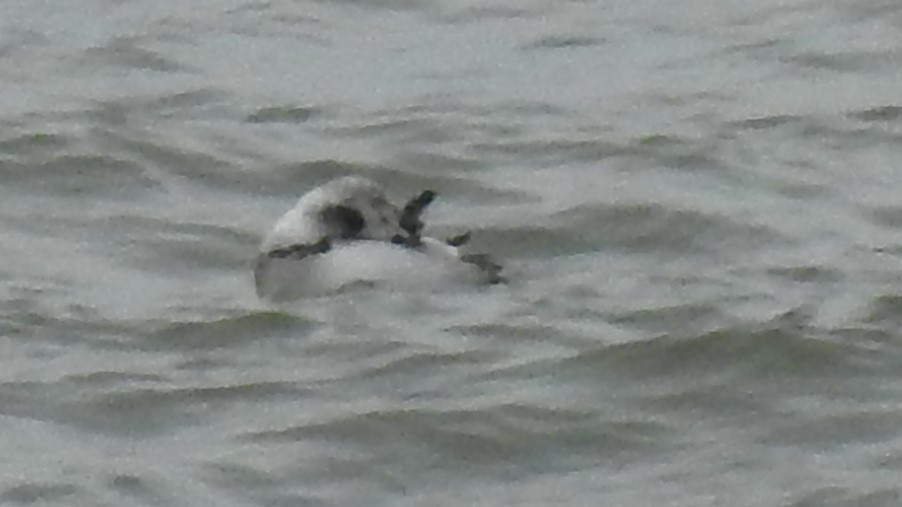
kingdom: Animalia
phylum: Chordata
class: Aves
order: Anseriformes
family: Anatidae
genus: Clangula
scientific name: Clangula hyemalis
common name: Long-tailed duck
